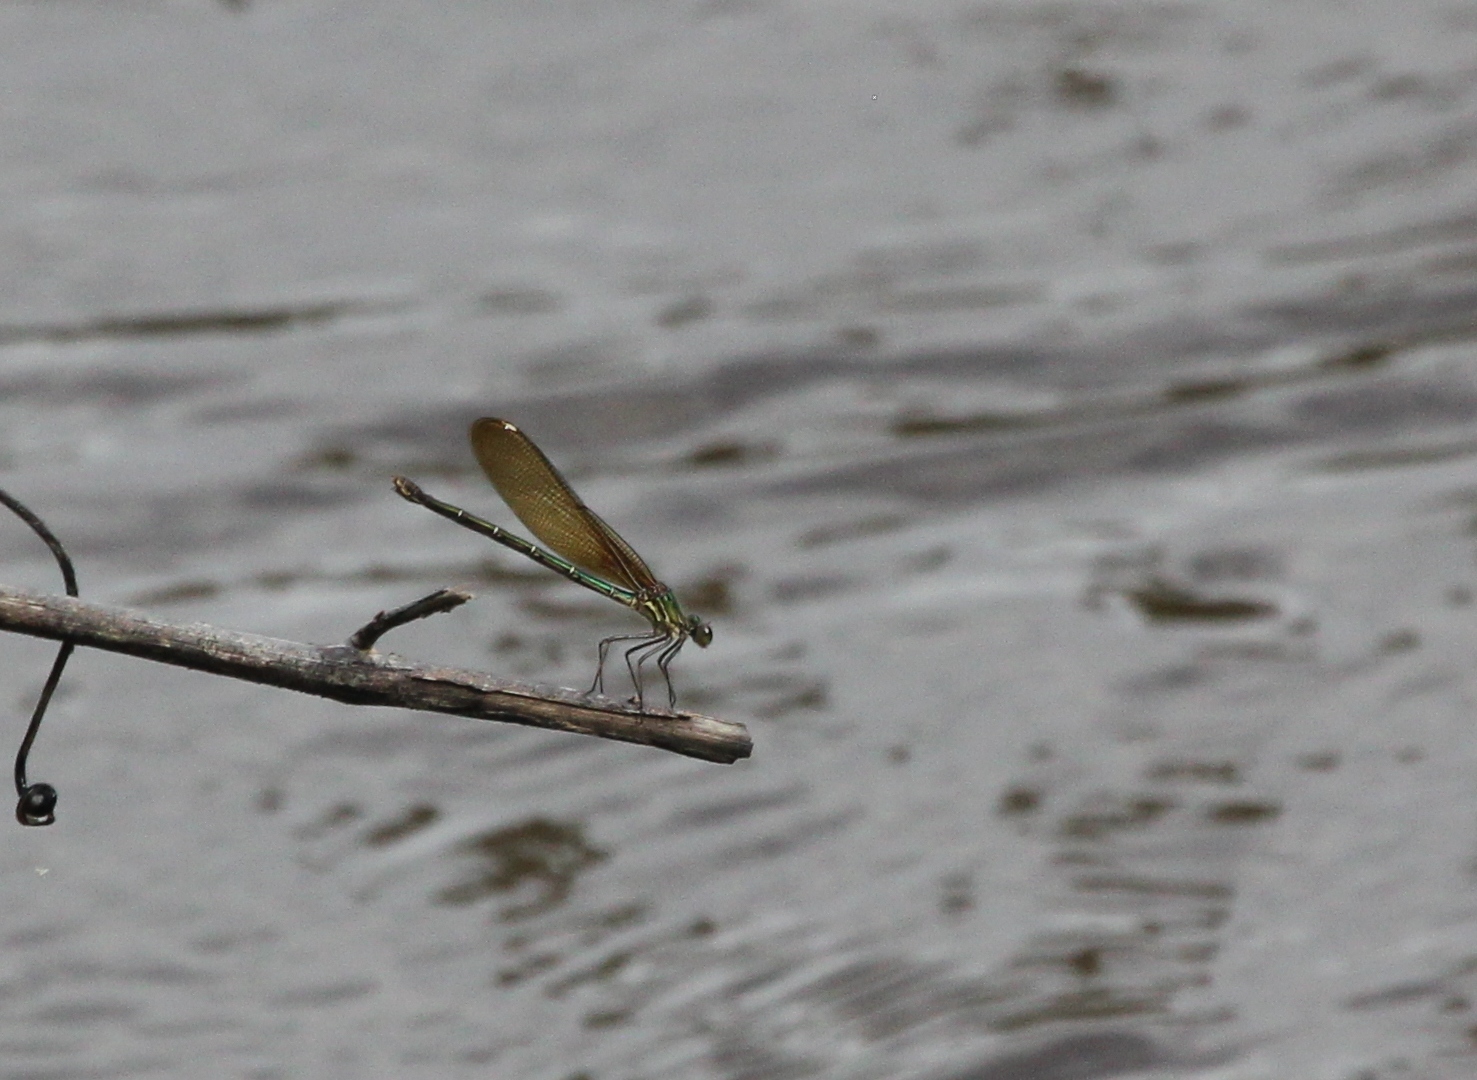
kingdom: Animalia
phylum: Arthropoda
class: Insecta
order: Odonata
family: Calopterygidae
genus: Hetaerina
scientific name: Hetaerina americana
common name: American rubyspot
